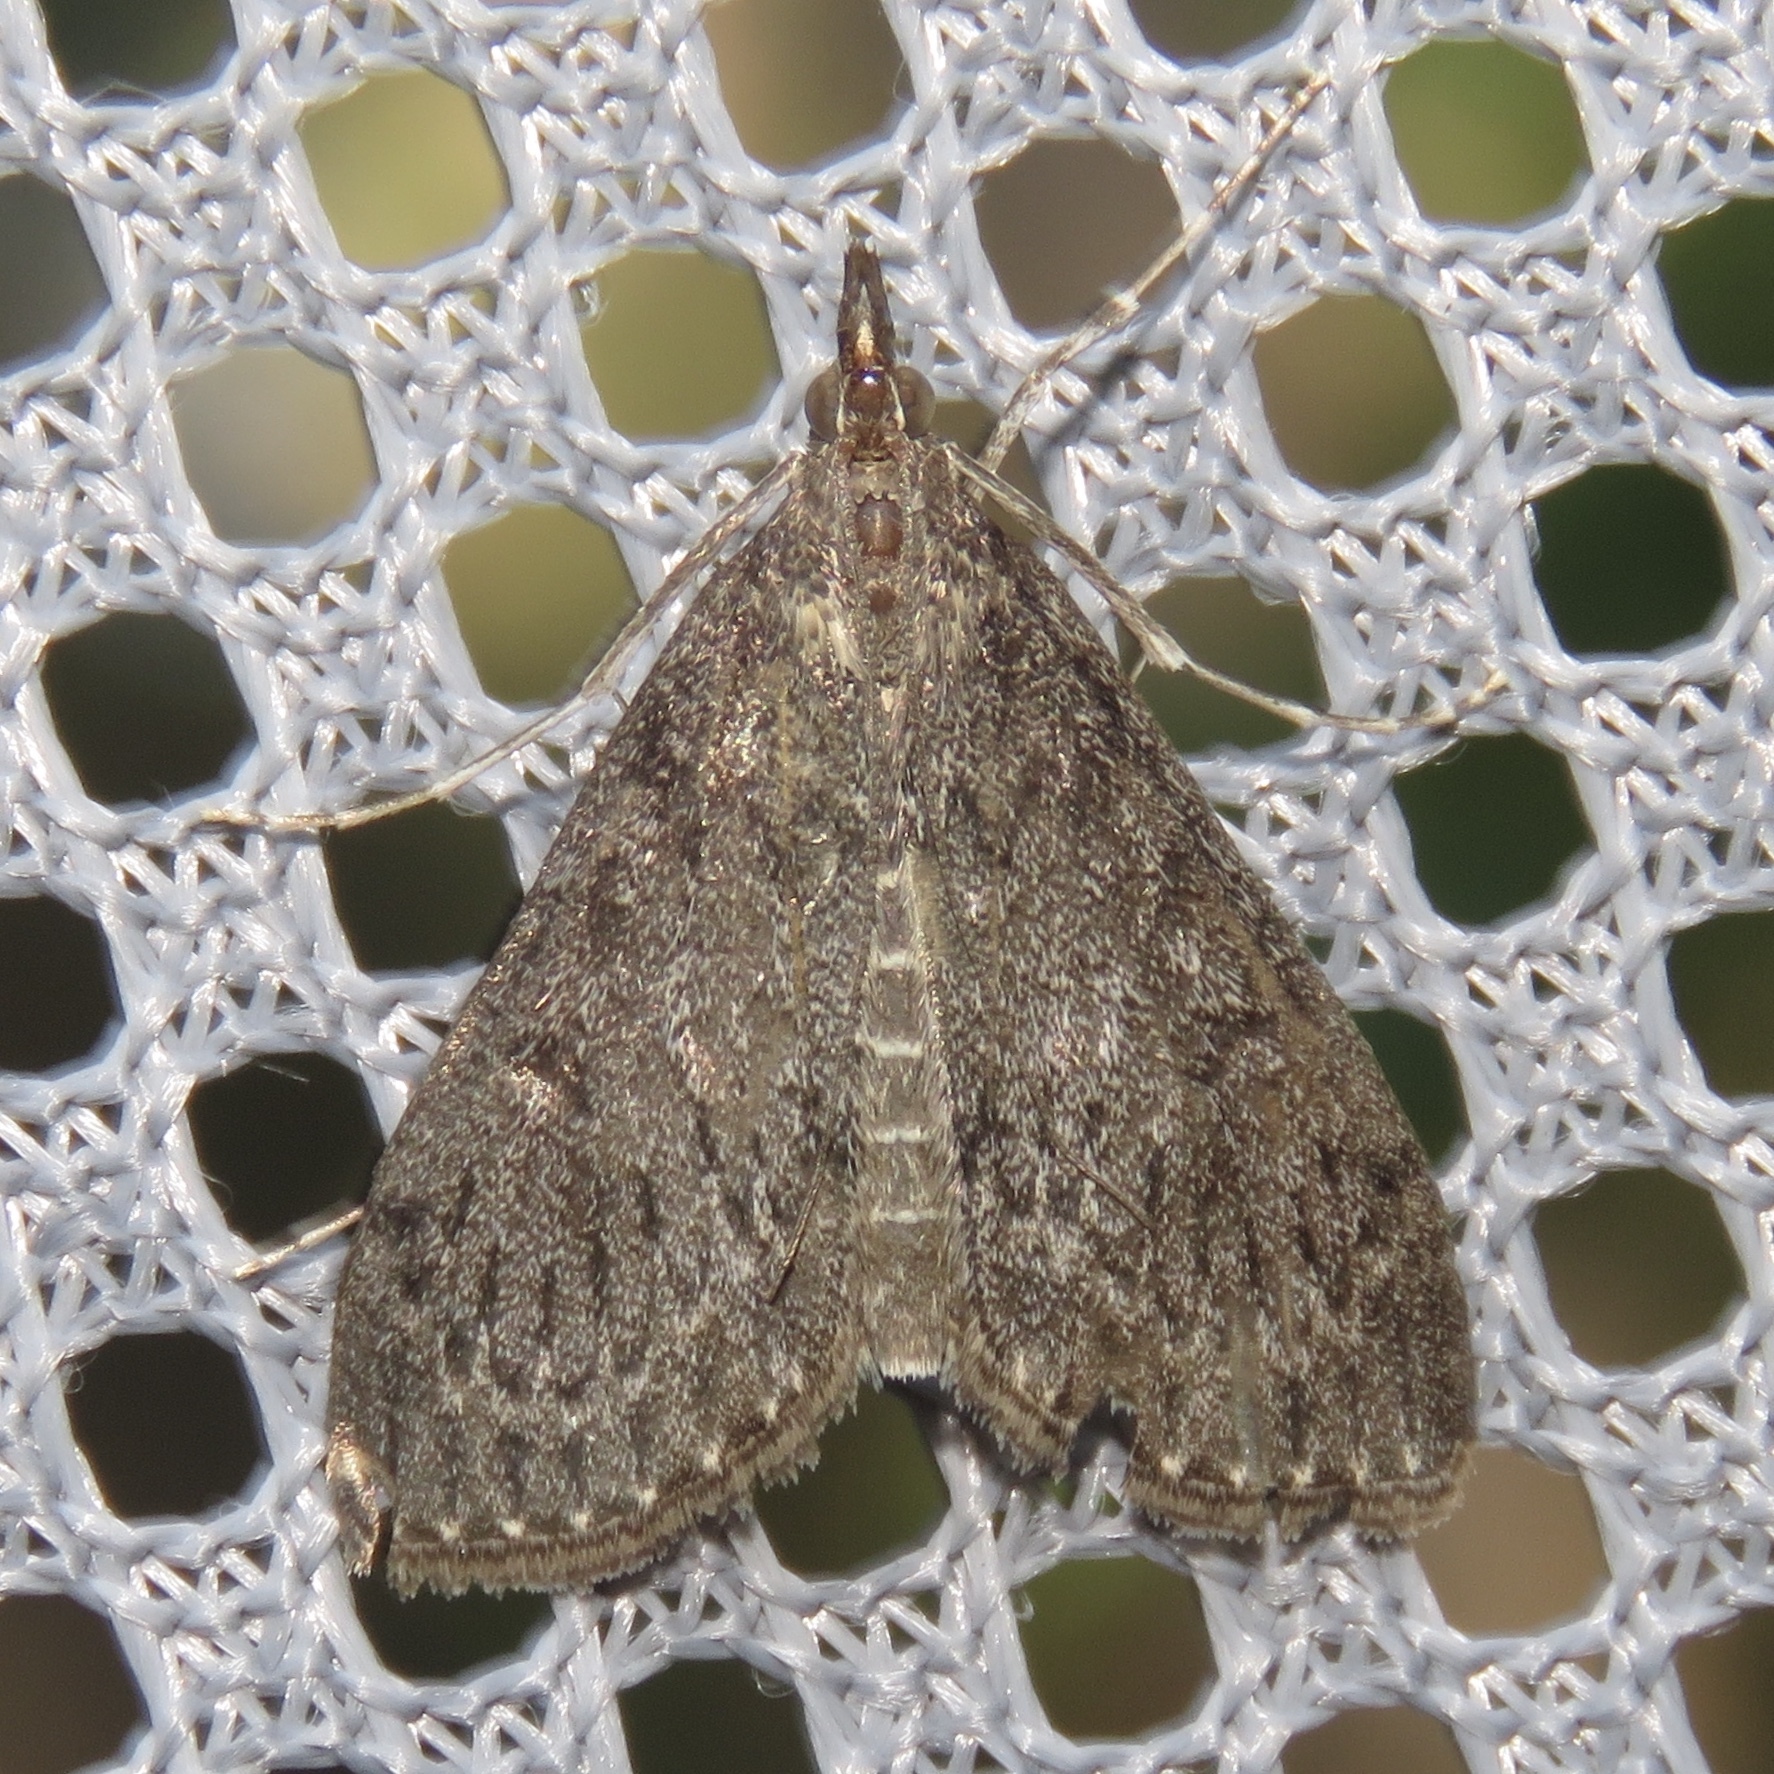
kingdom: Animalia
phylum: Arthropoda
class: Insecta
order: Lepidoptera
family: Crambidae
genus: Saucrobotys
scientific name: Saucrobotys fumoferalis
